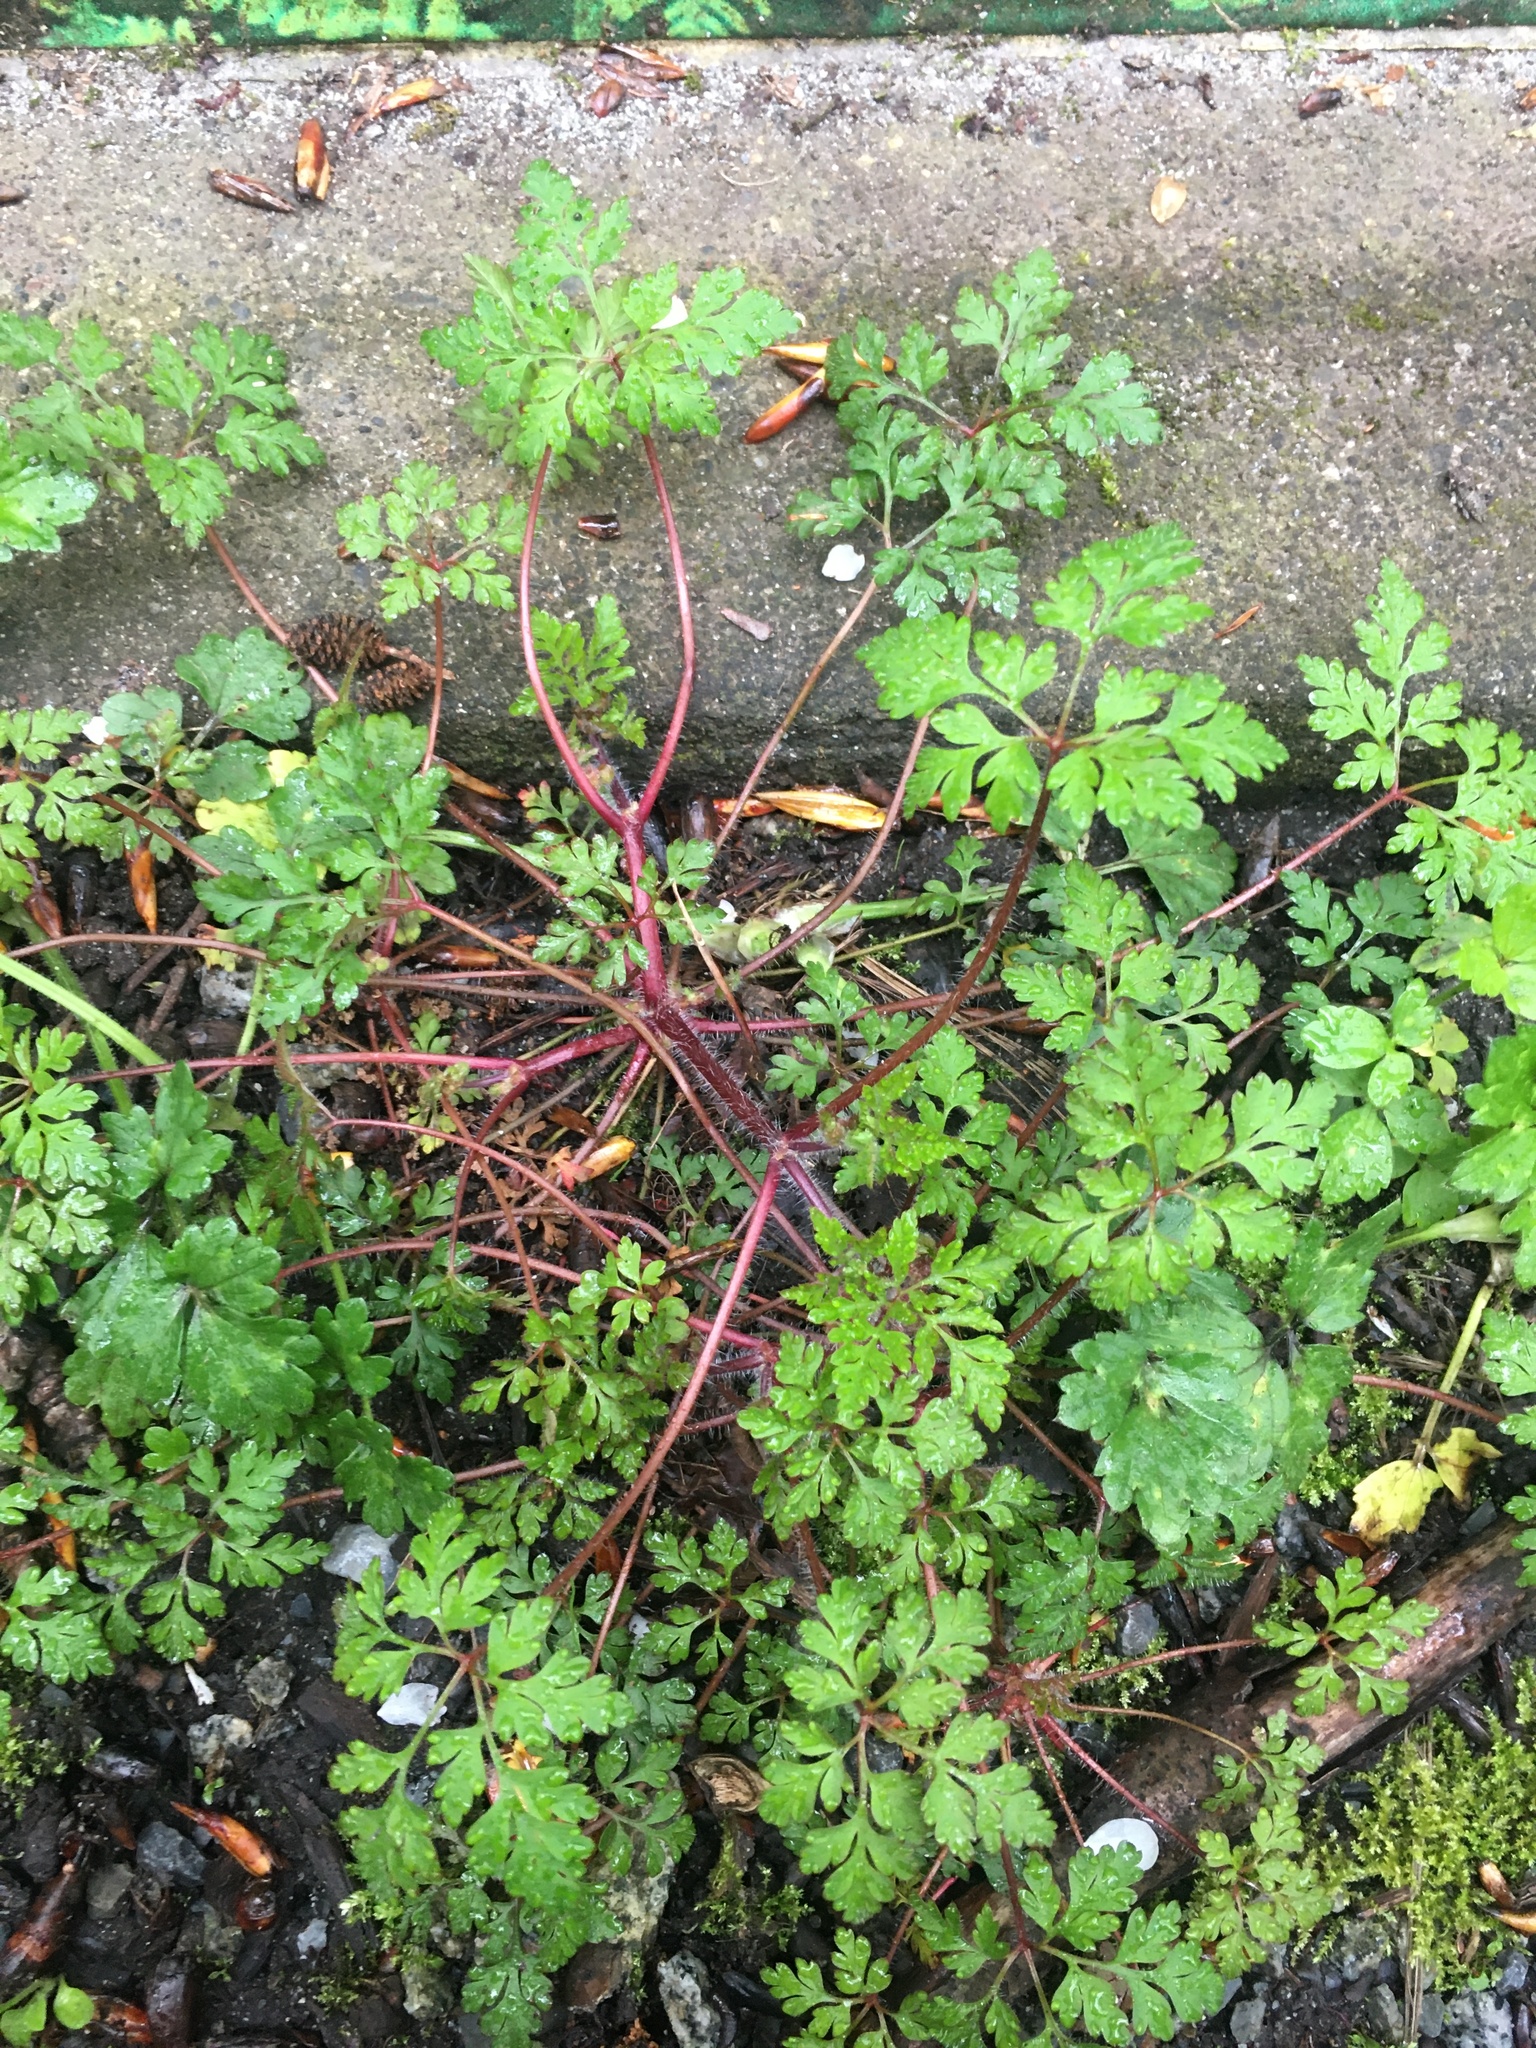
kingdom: Plantae
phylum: Tracheophyta
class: Magnoliopsida
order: Geraniales
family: Geraniaceae
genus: Geranium
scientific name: Geranium robertianum
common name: Herb-robert
